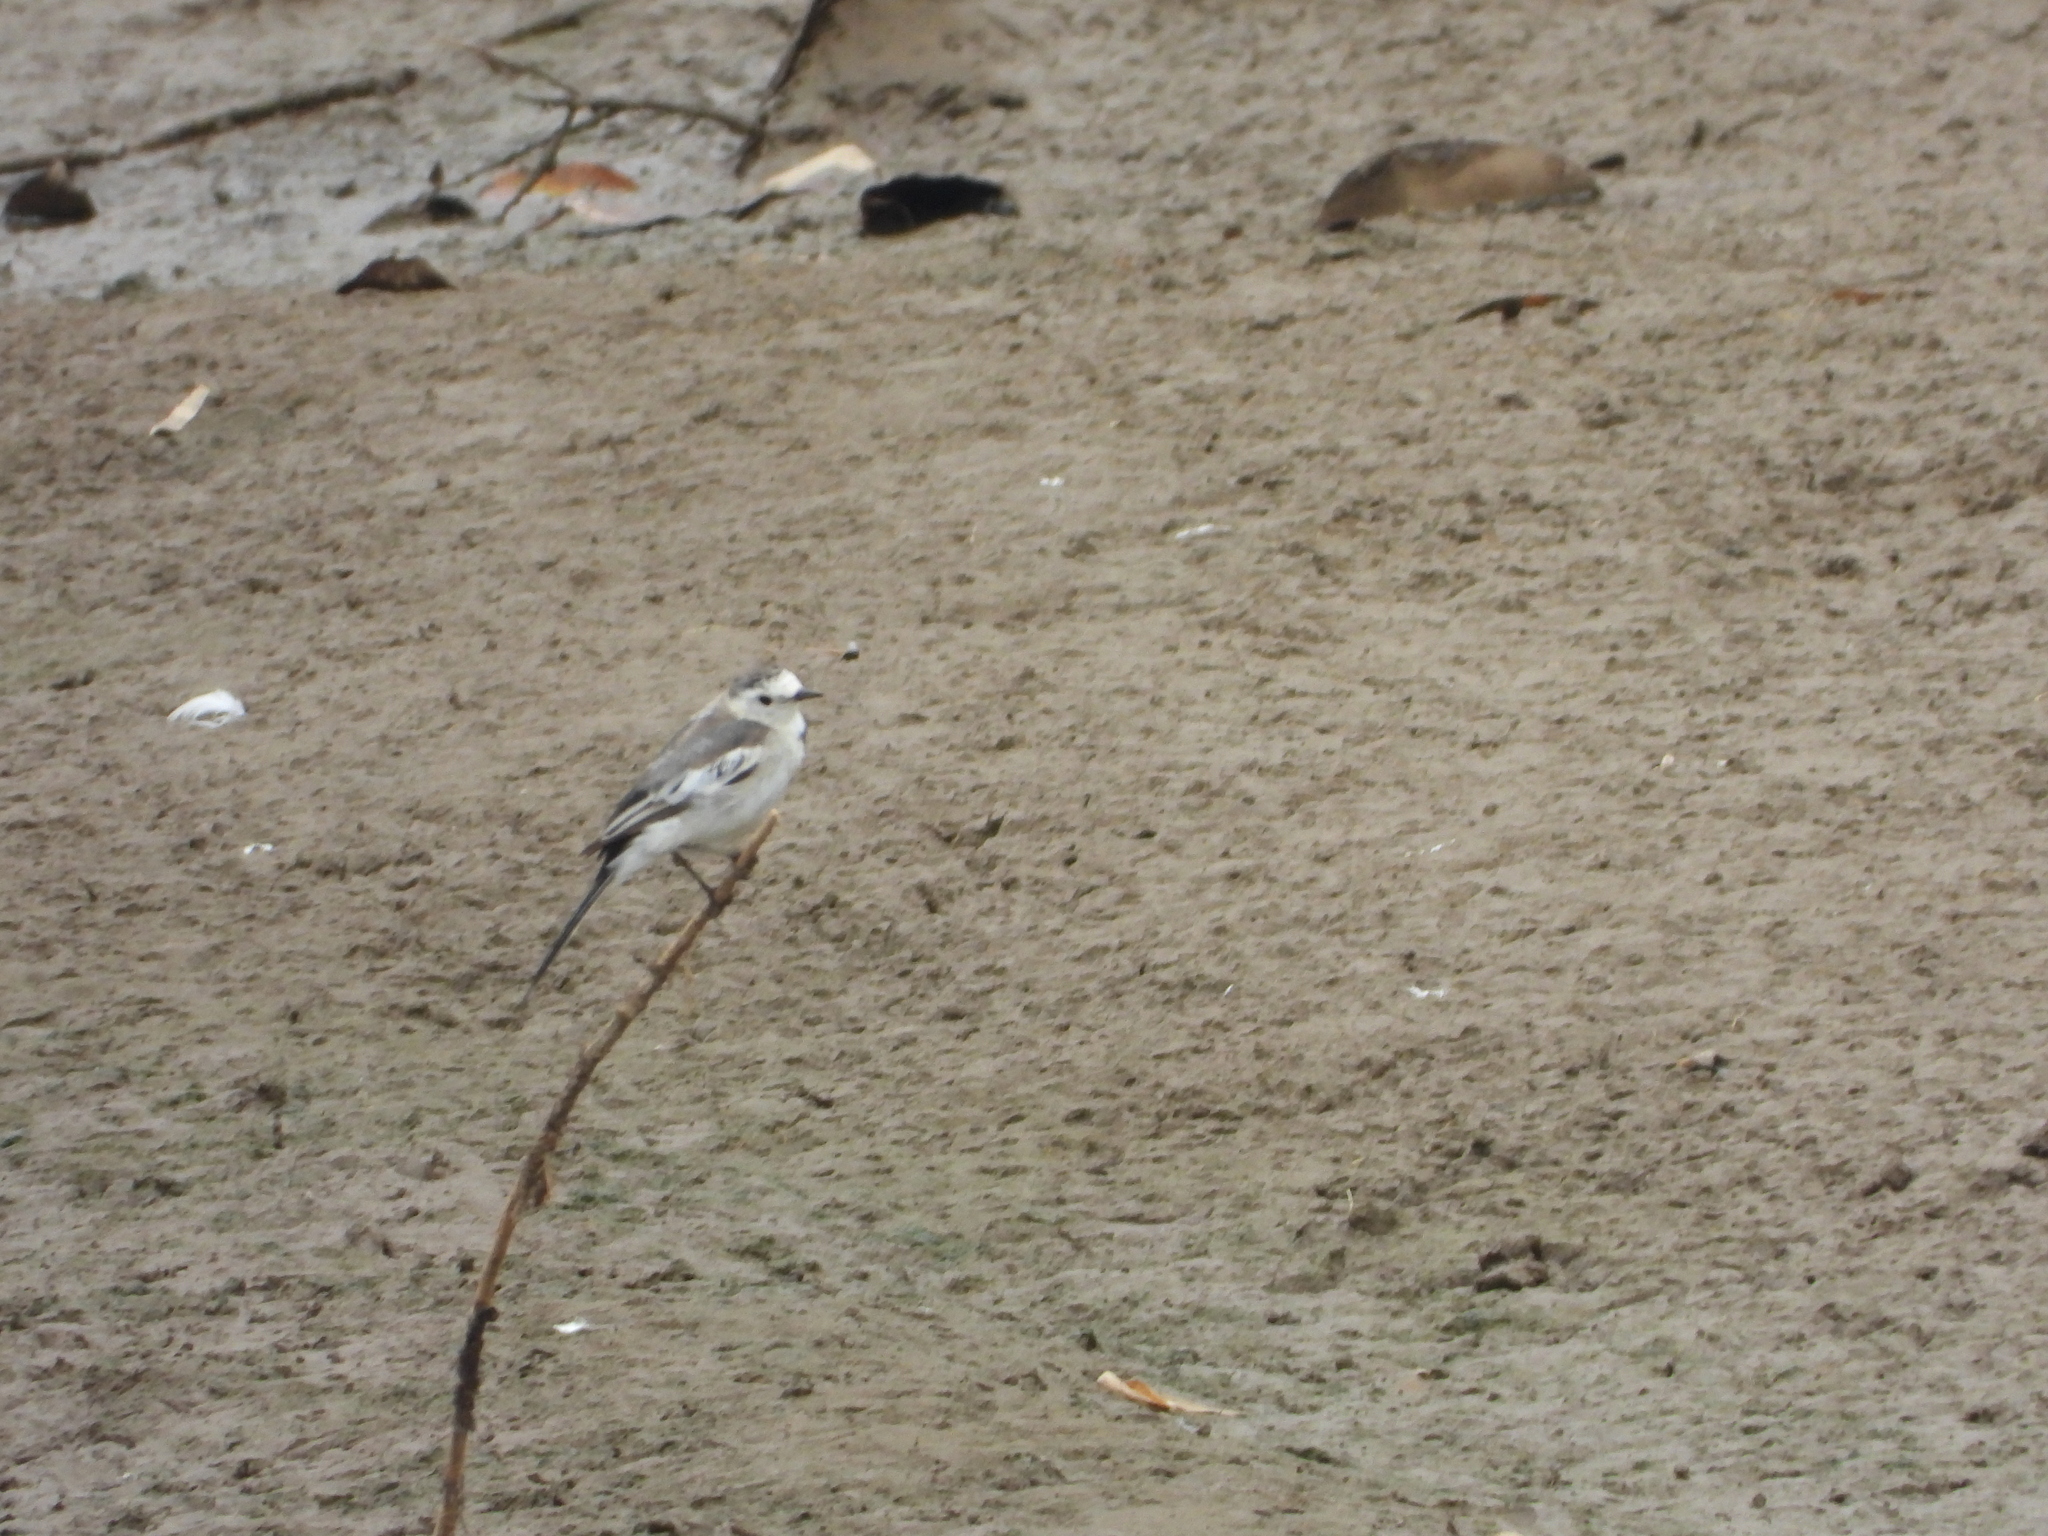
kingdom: Animalia
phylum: Chordata
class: Aves
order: Passeriformes
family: Motacillidae
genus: Motacilla
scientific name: Motacilla alba
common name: White wagtail
